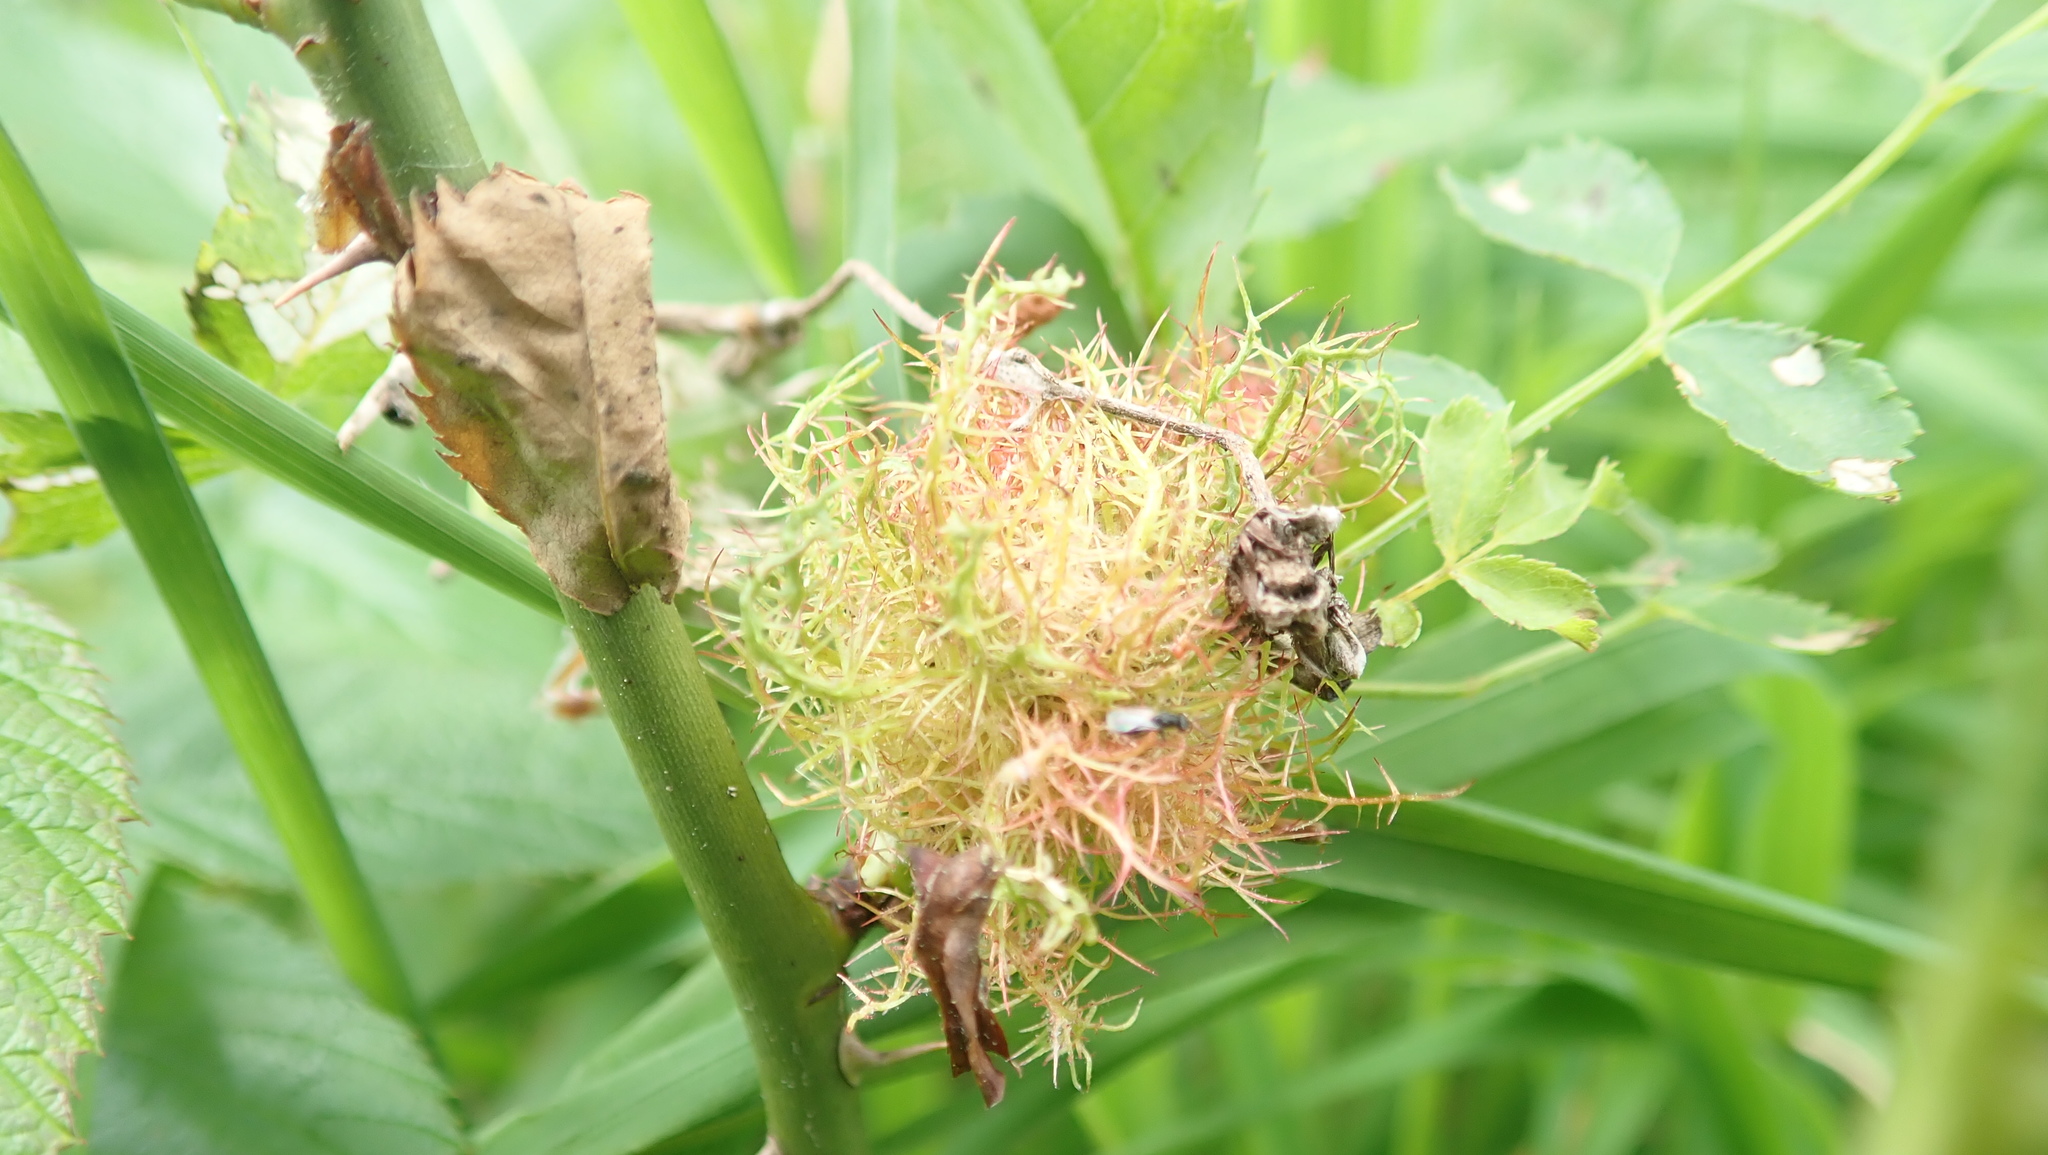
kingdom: Animalia
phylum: Arthropoda
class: Insecta
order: Hymenoptera
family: Cynipidae
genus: Diplolepis
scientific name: Diplolepis rosae
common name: Bedeguar gall
